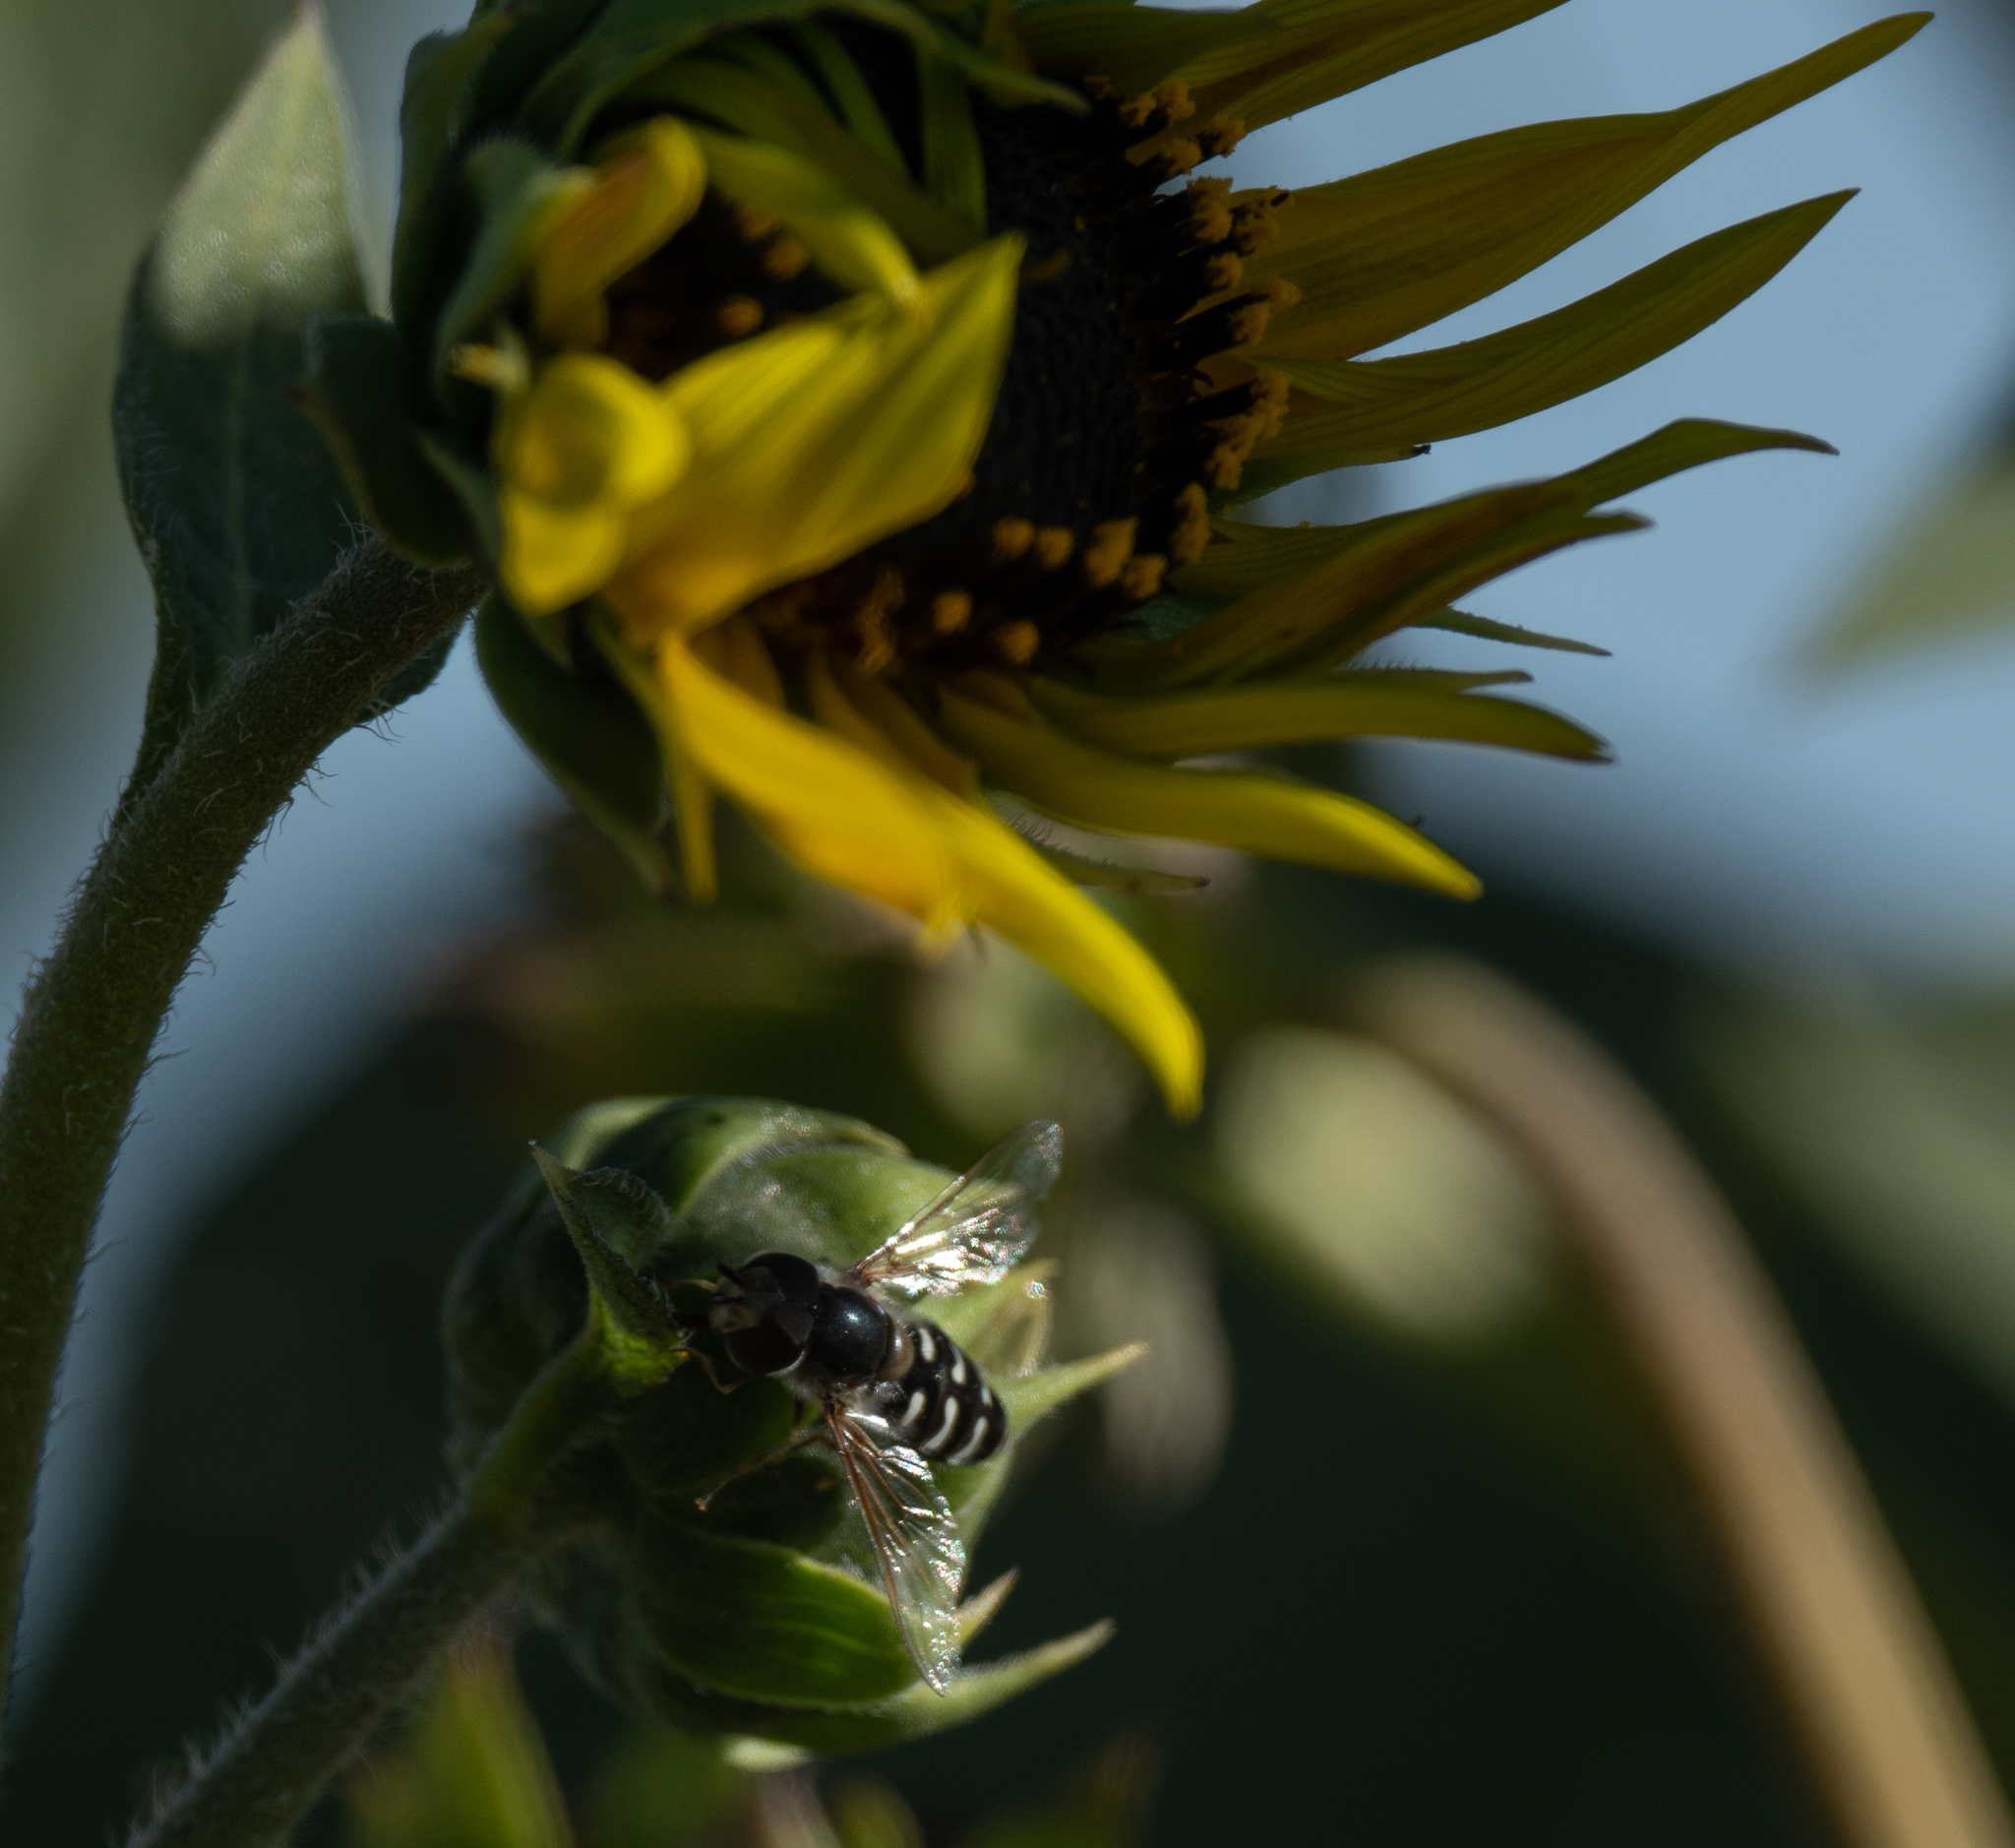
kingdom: Animalia
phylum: Arthropoda
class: Insecta
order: Diptera
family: Syrphidae
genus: Scaeva
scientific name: Scaeva affinis
